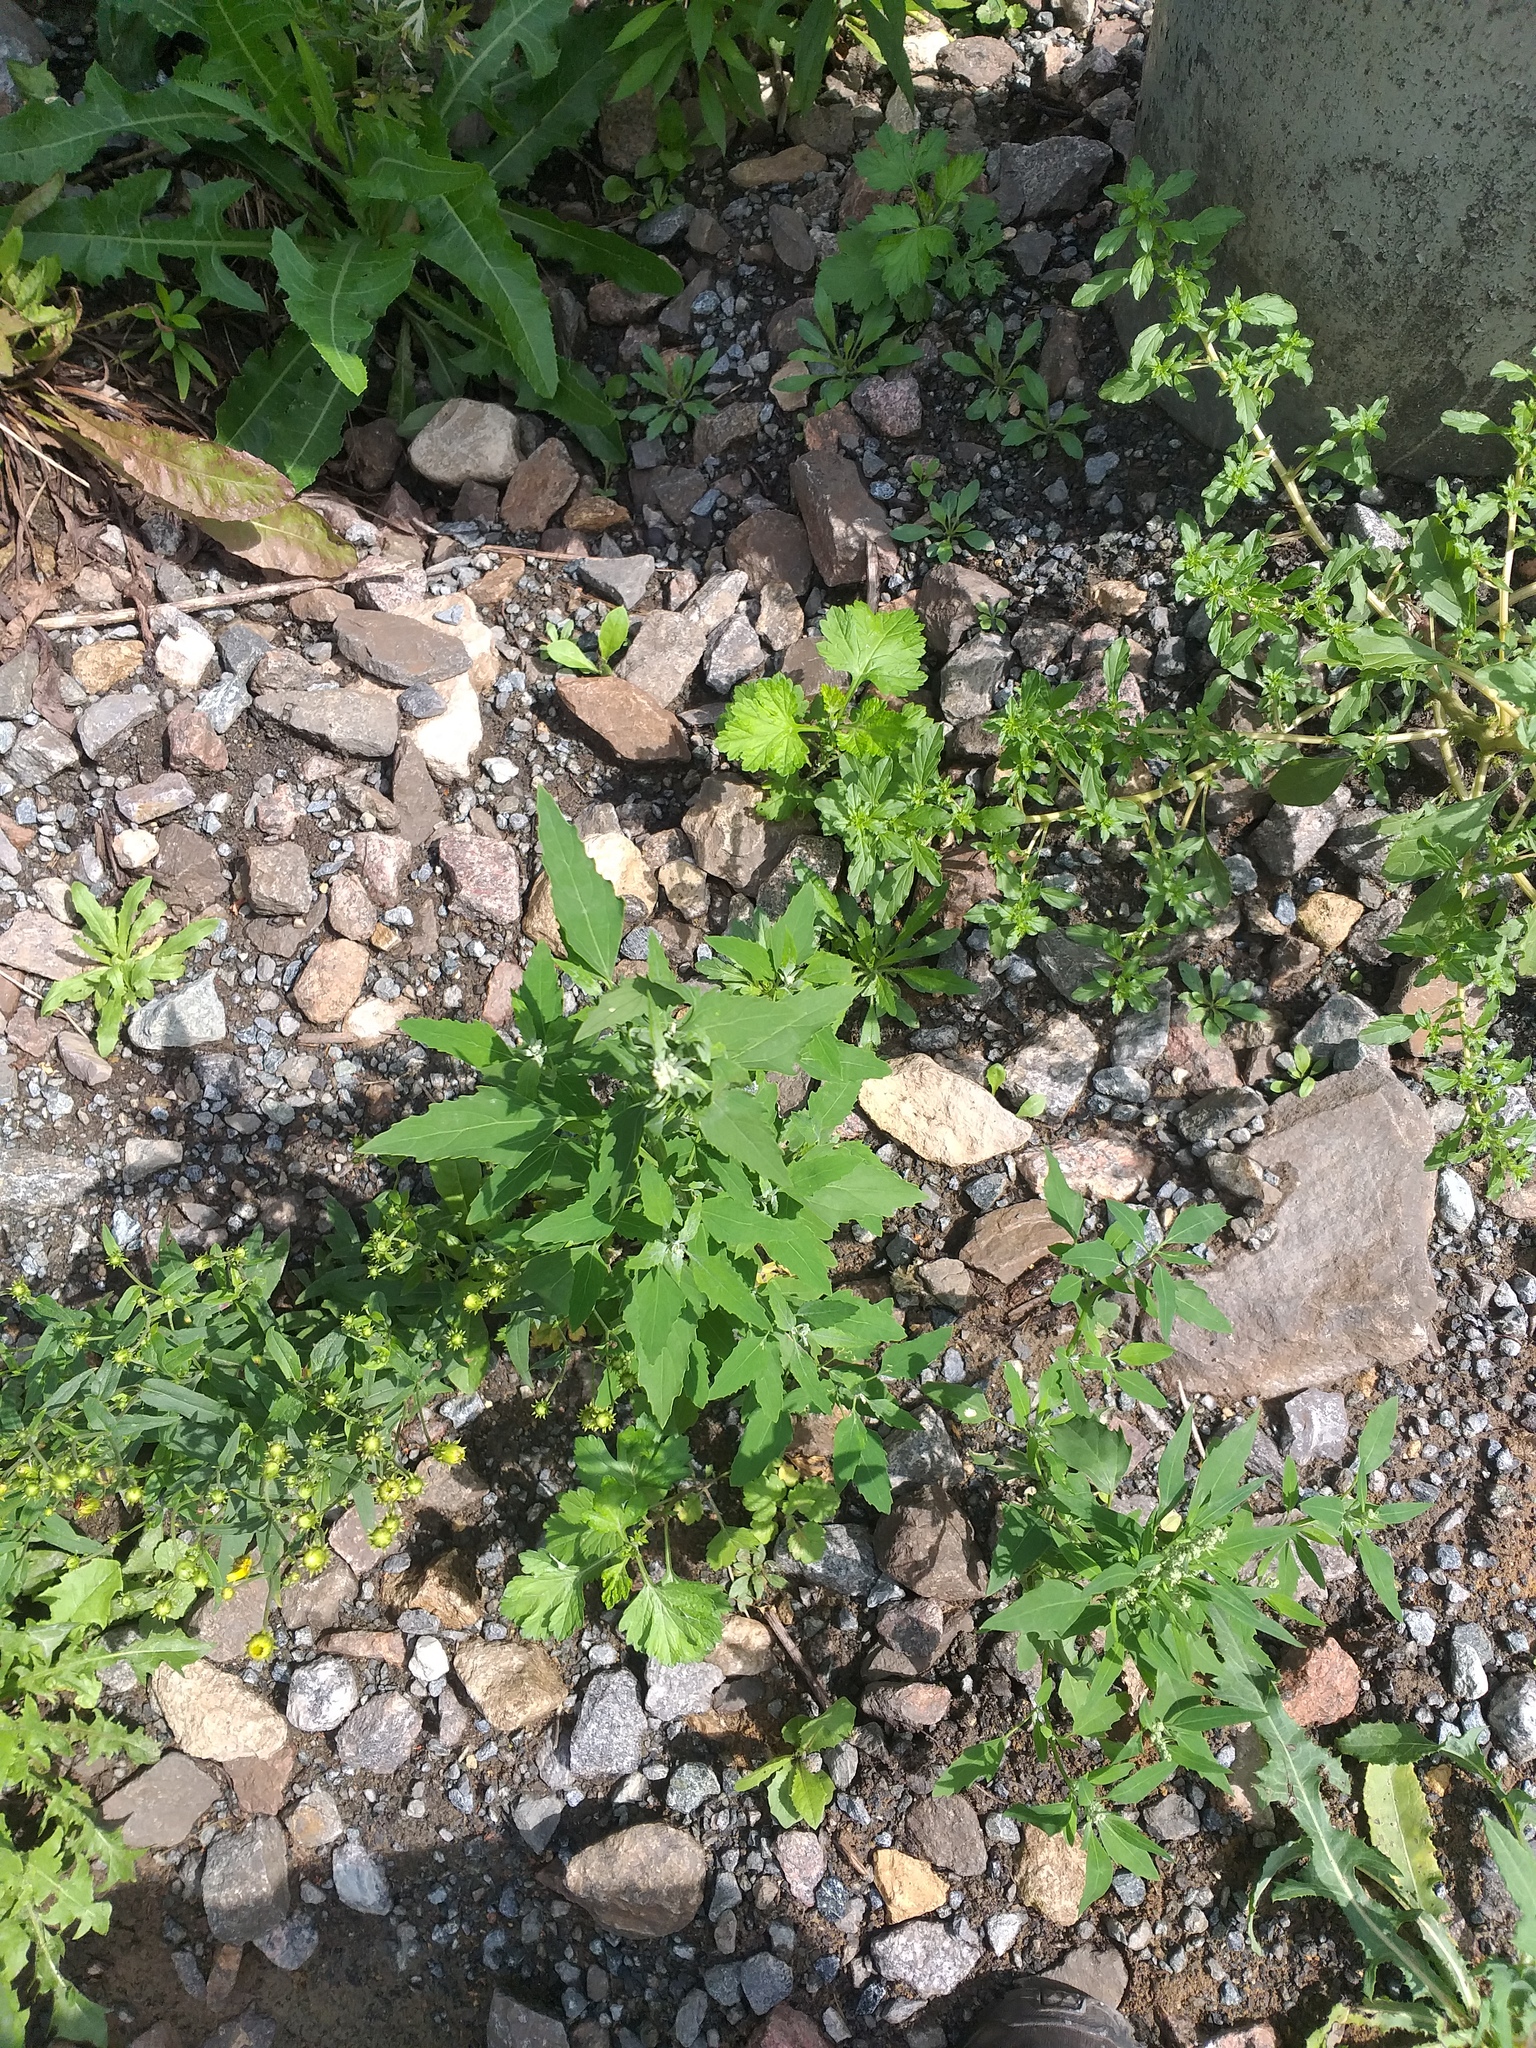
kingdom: Plantae
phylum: Tracheophyta
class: Magnoliopsida
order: Caryophyllales
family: Amaranthaceae
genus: Chenopodium
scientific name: Chenopodium album
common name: Fat-hen
